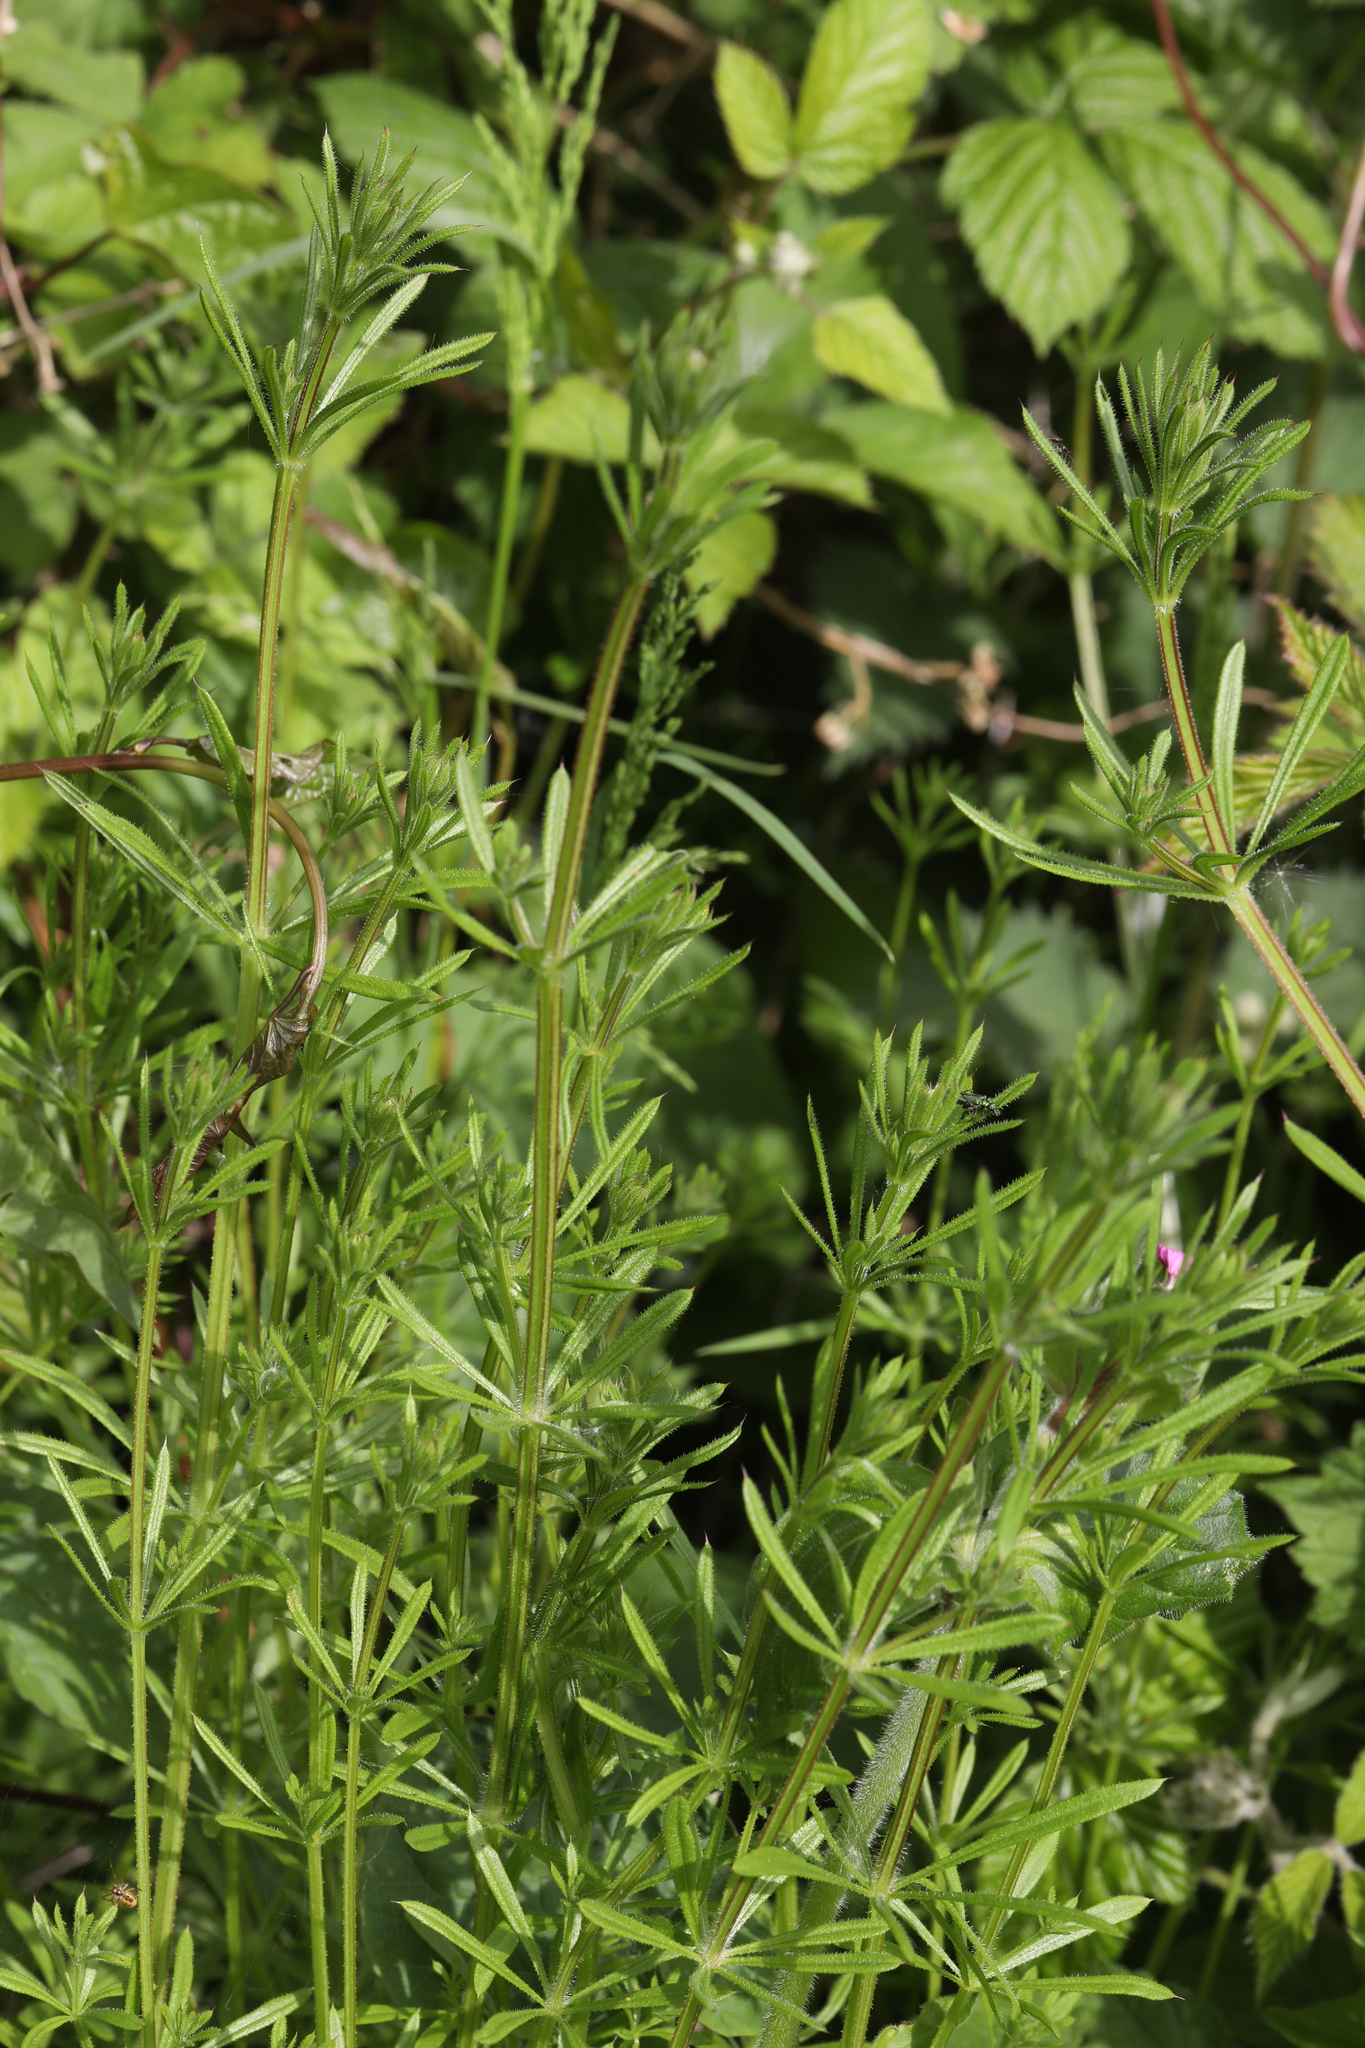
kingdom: Plantae
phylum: Tracheophyta
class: Magnoliopsida
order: Gentianales
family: Rubiaceae
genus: Galium
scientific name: Galium aparine
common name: Cleavers
